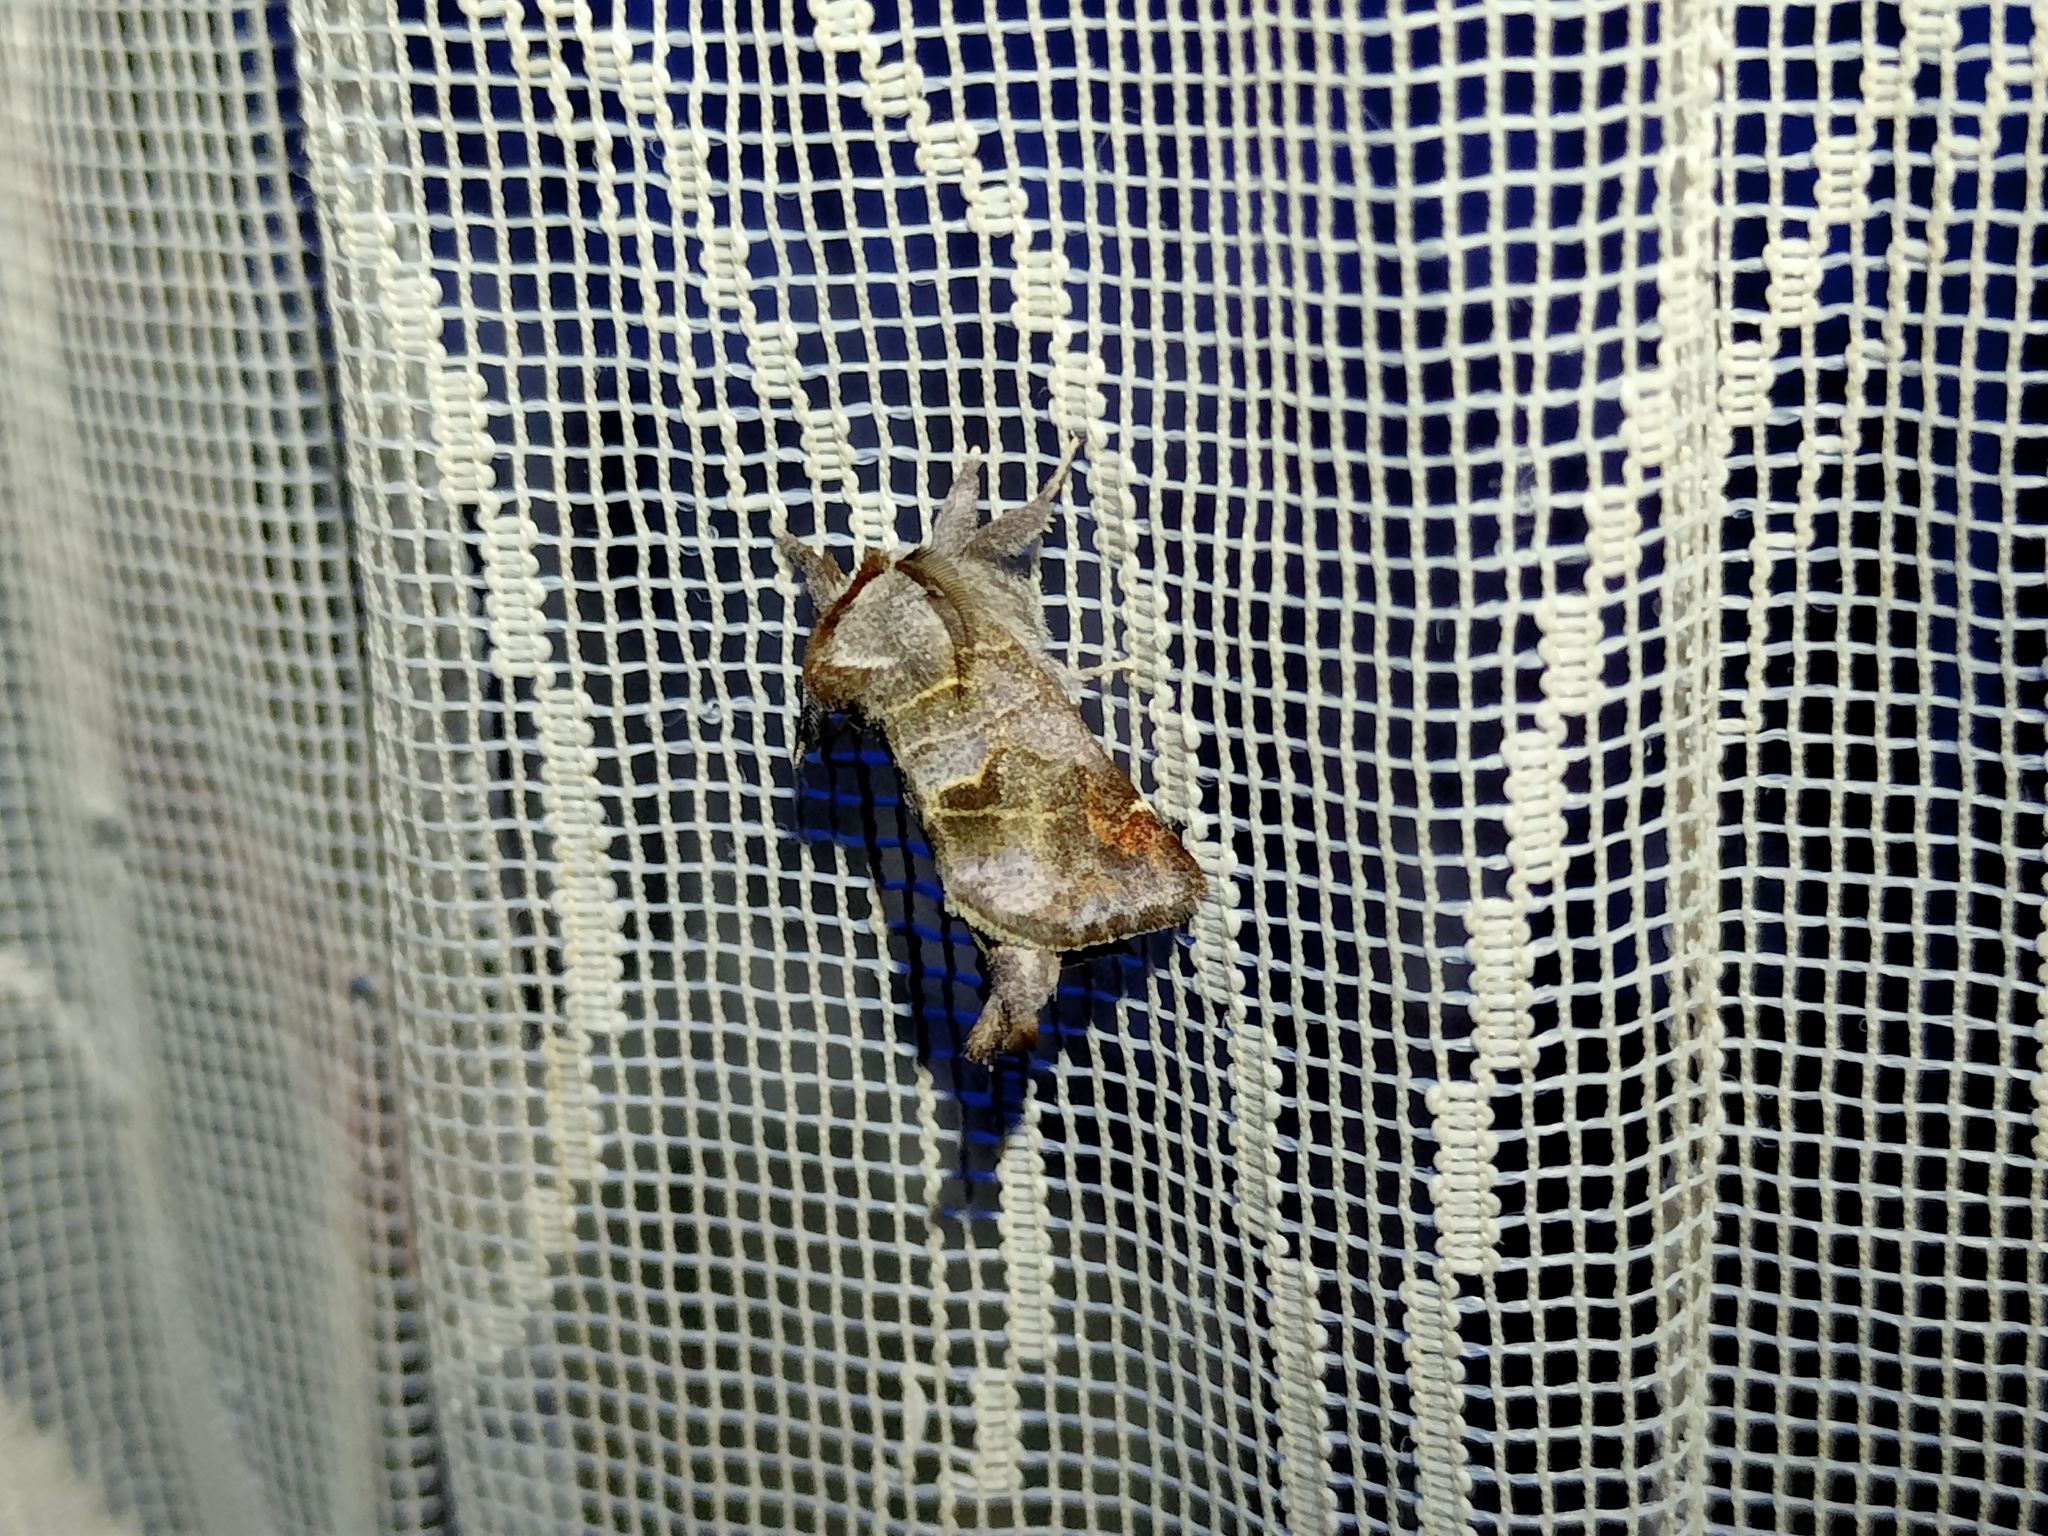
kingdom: Animalia
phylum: Arthropoda
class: Insecta
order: Lepidoptera
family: Notodontidae
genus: Clostera
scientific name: Clostera pigra
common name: Small chocolate-tip
